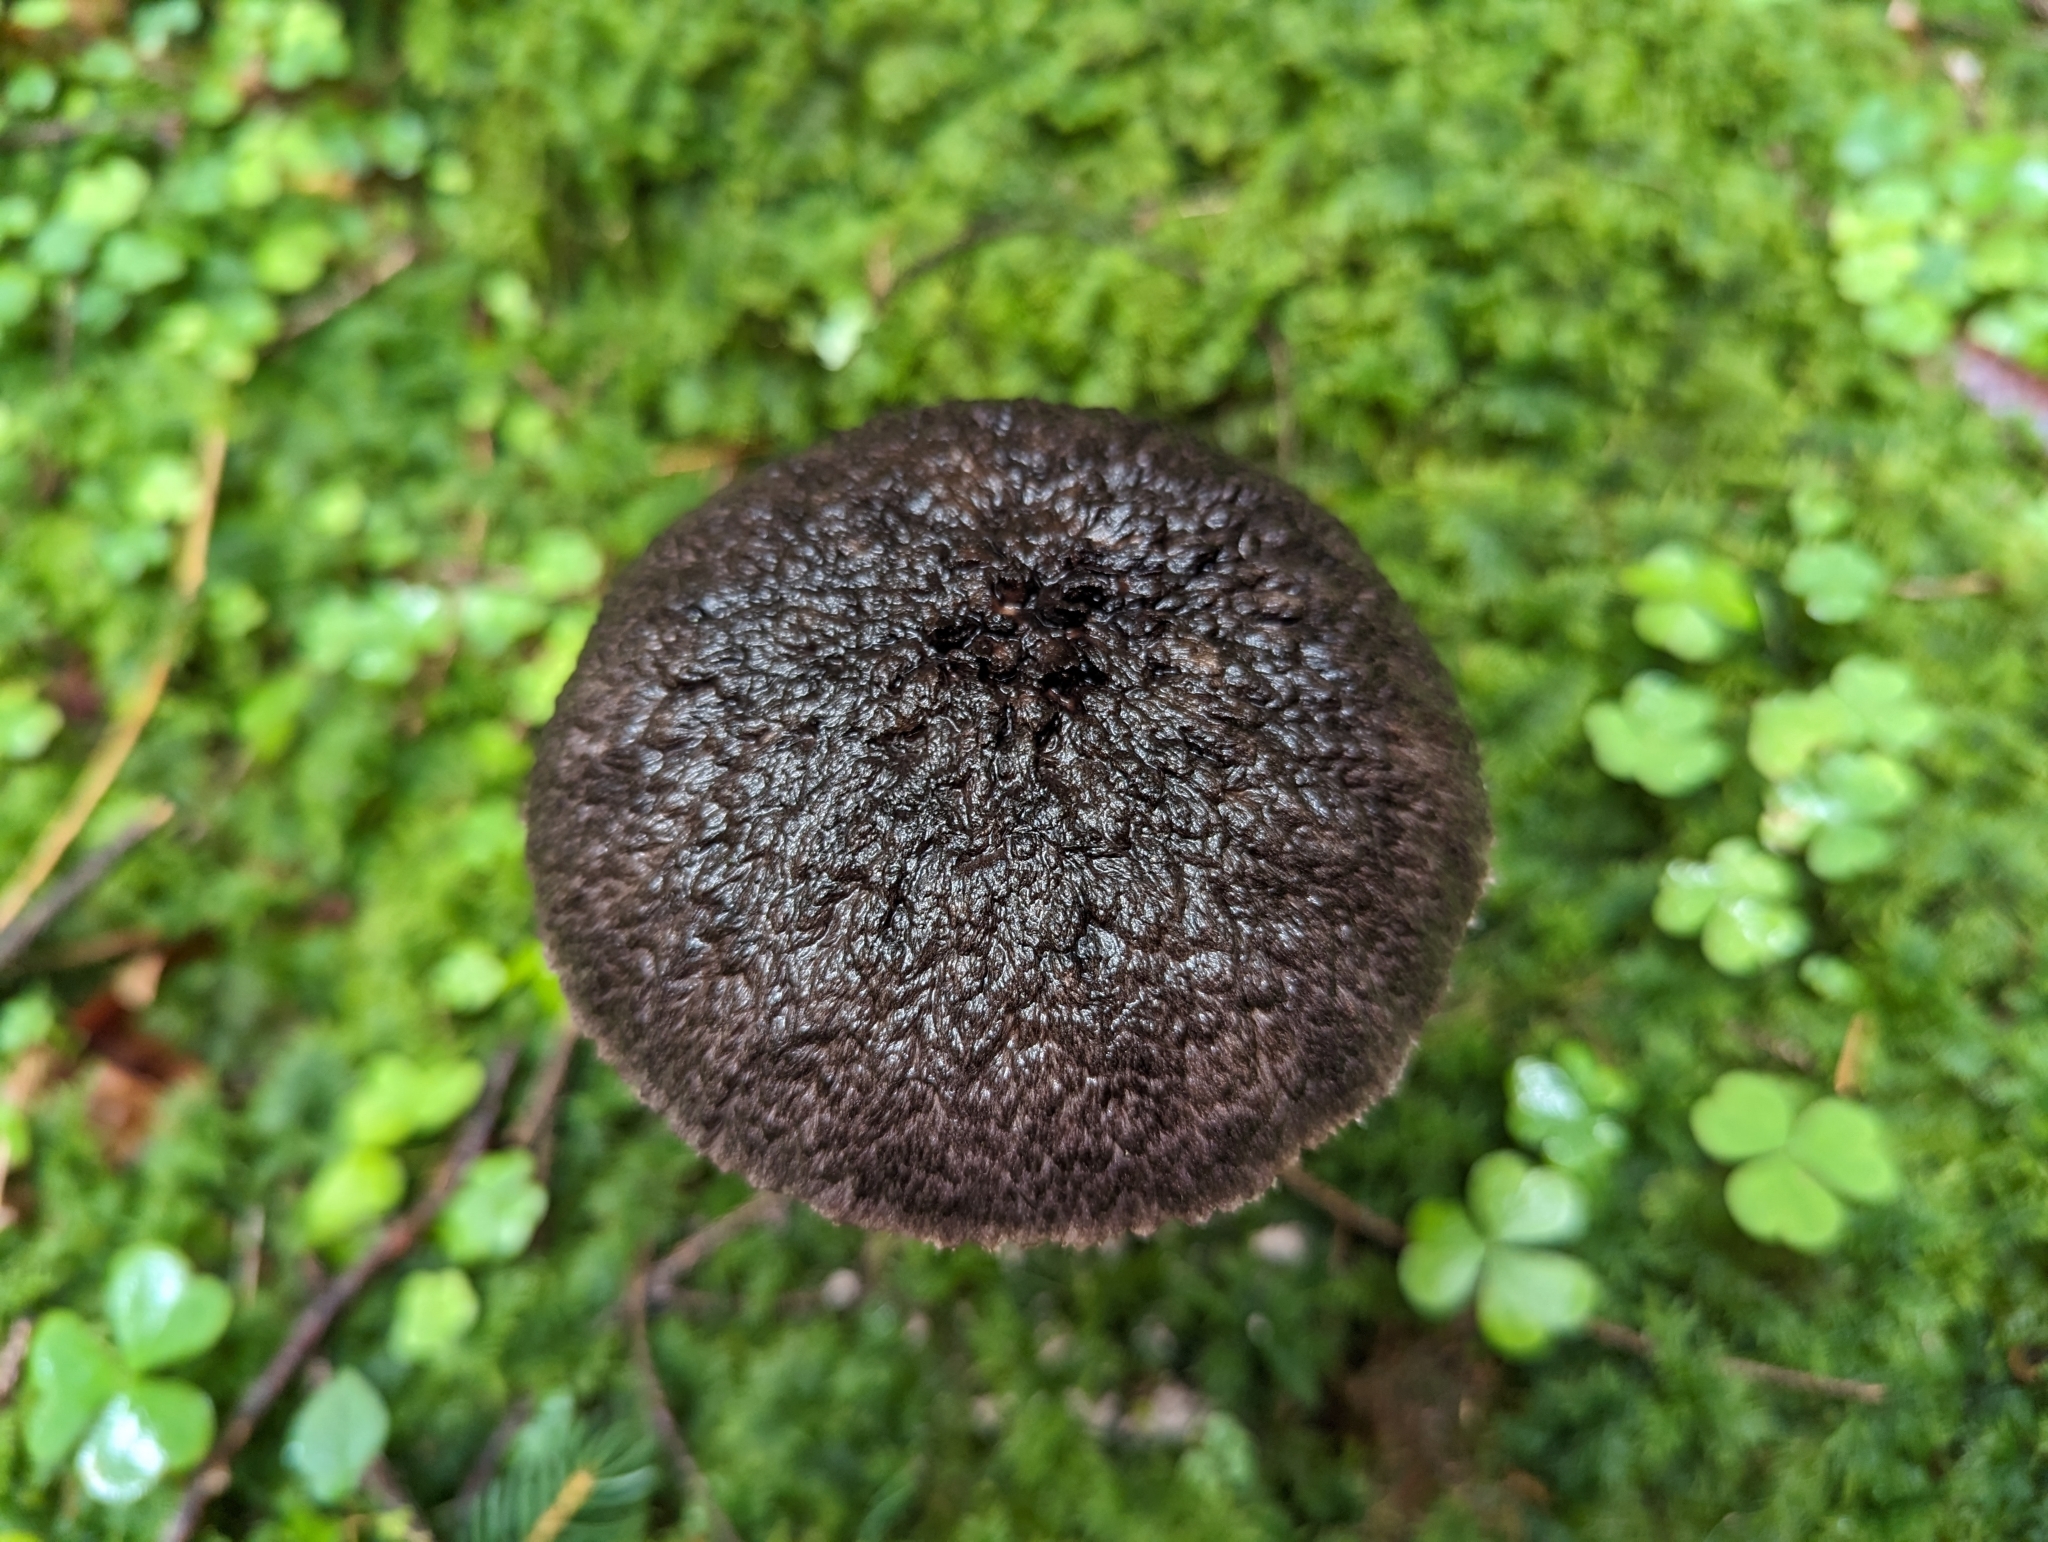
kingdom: Fungi
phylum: Basidiomycota
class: Agaricomycetes
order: Boletales
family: Boletaceae
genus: Strobilomyces
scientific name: Strobilomyces strobilaceus
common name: Old man of the woods
